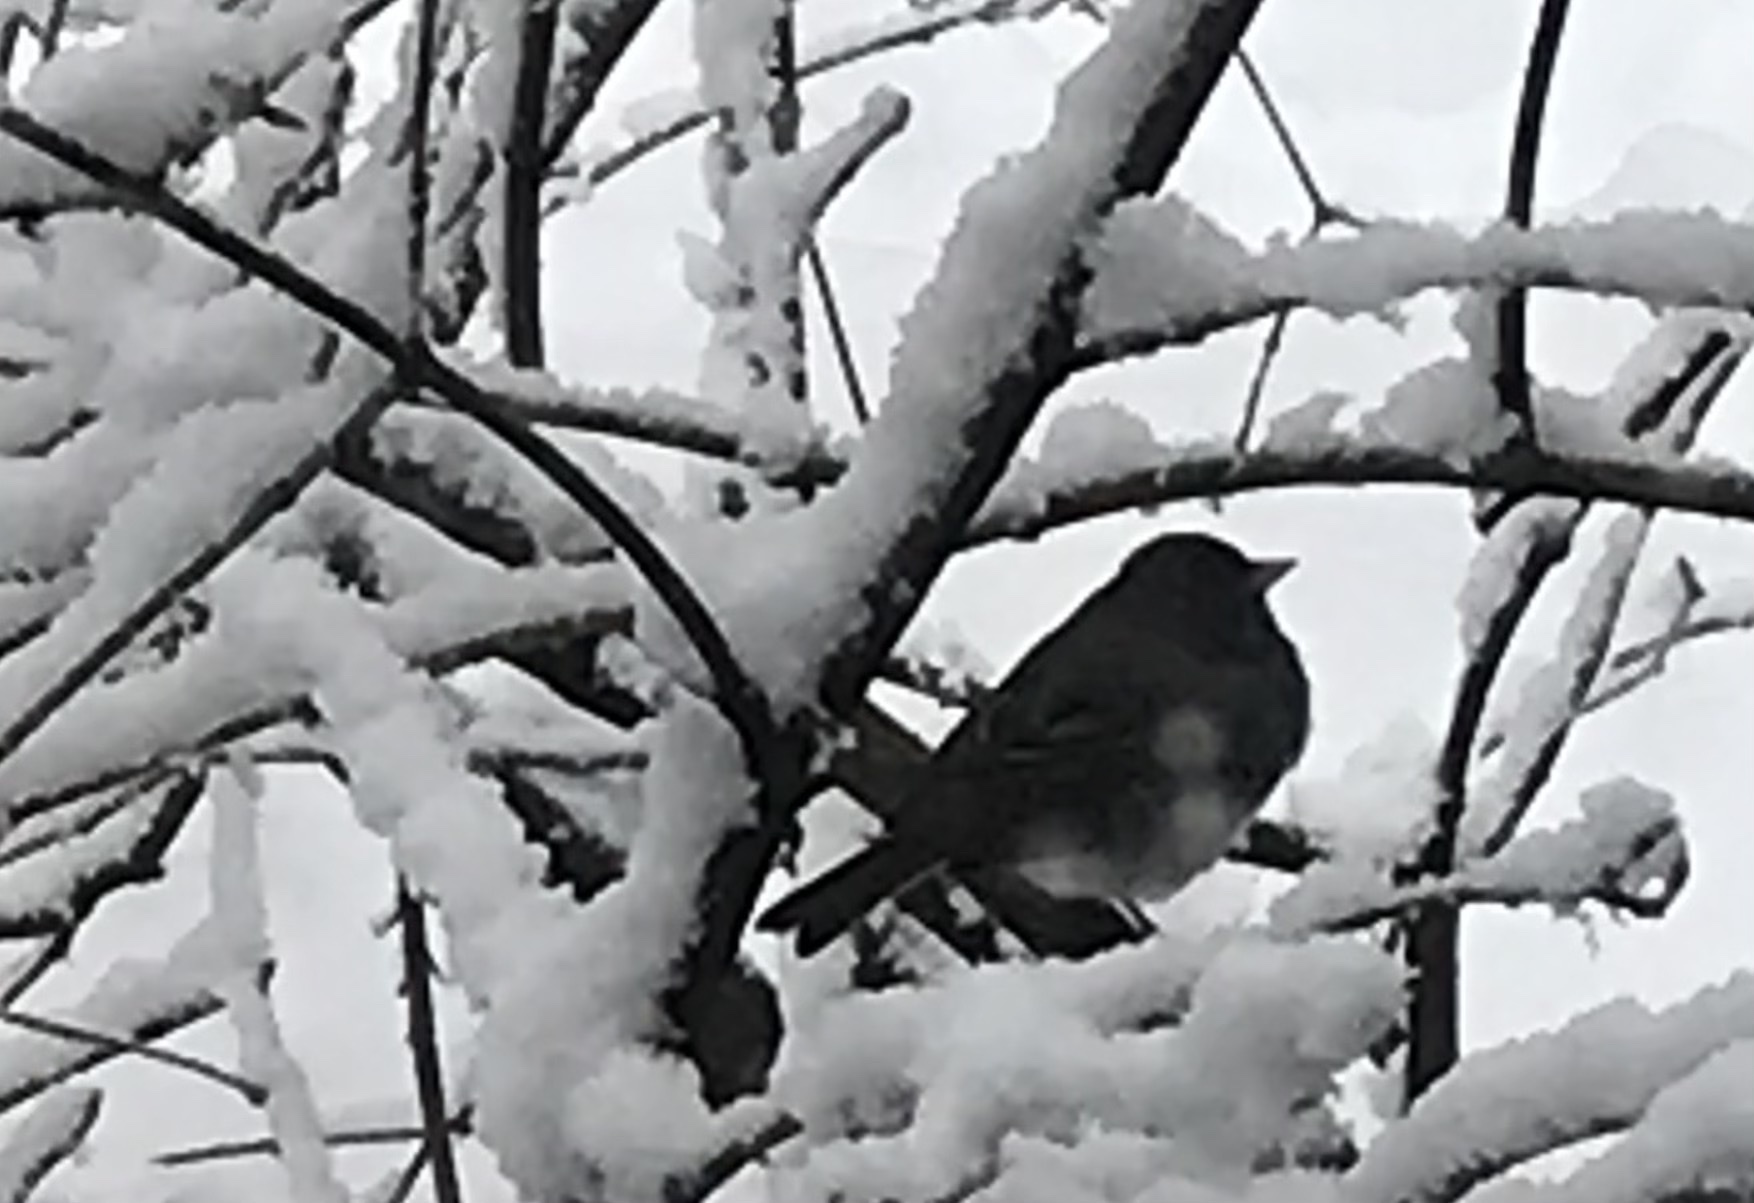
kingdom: Animalia
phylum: Chordata
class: Aves
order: Passeriformes
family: Passerellidae
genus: Junco
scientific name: Junco hyemalis
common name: Dark-eyed junco
